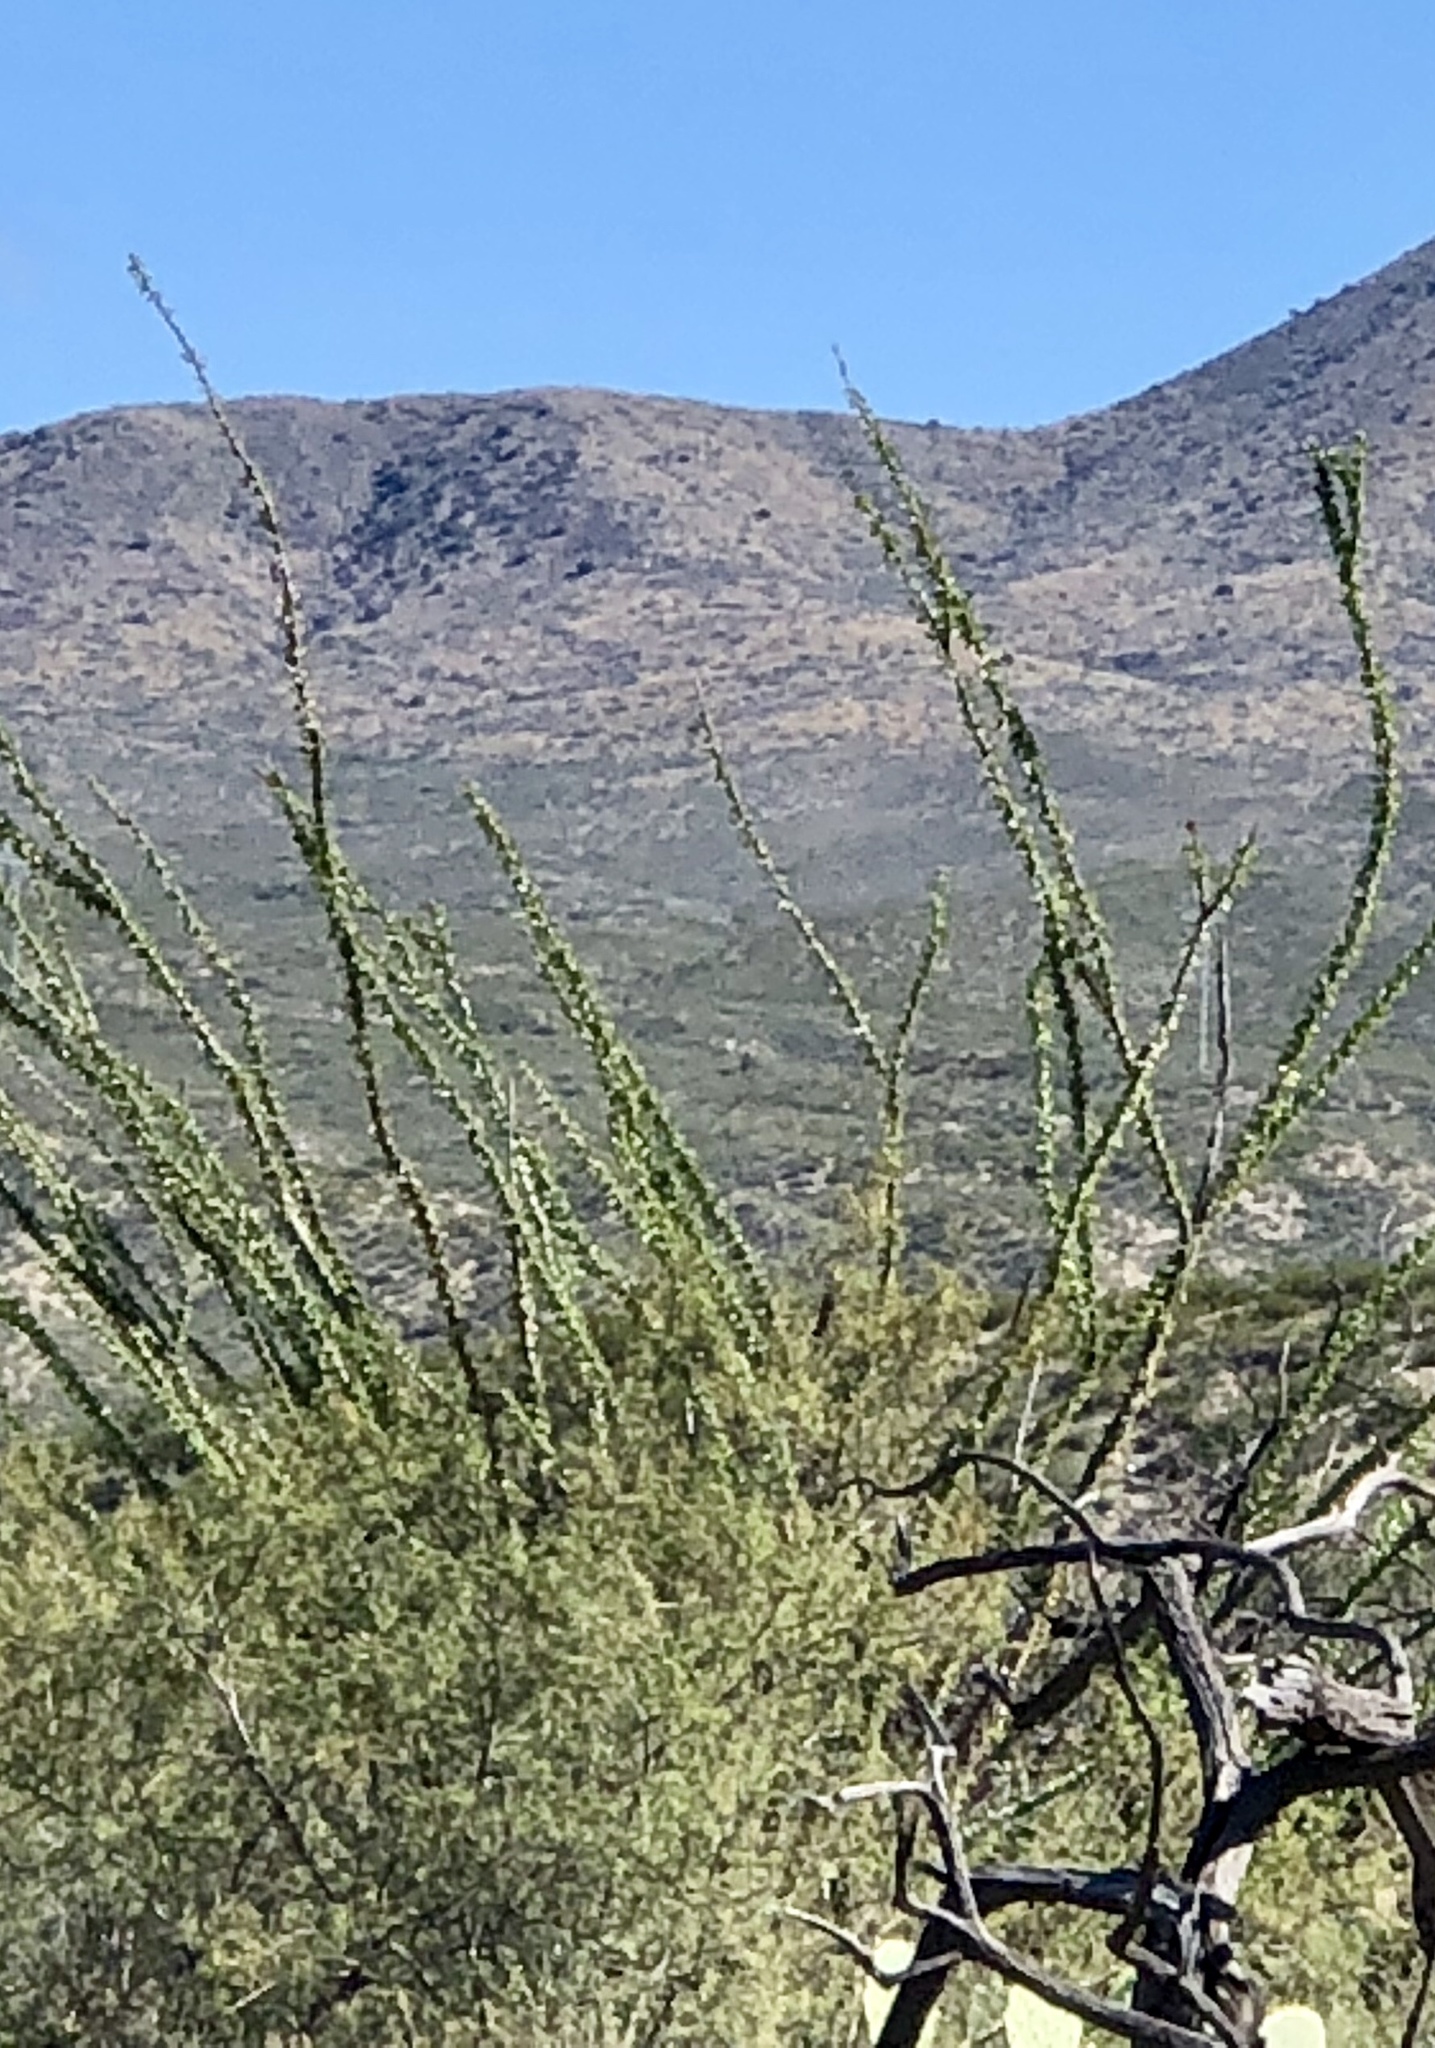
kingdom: Plantae
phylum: Tracheophyta
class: Magnoliopsida
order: Ericales
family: Fouquieriaceae
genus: Fouquieria
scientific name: Fouquieria splendens
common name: Vine-cactus
